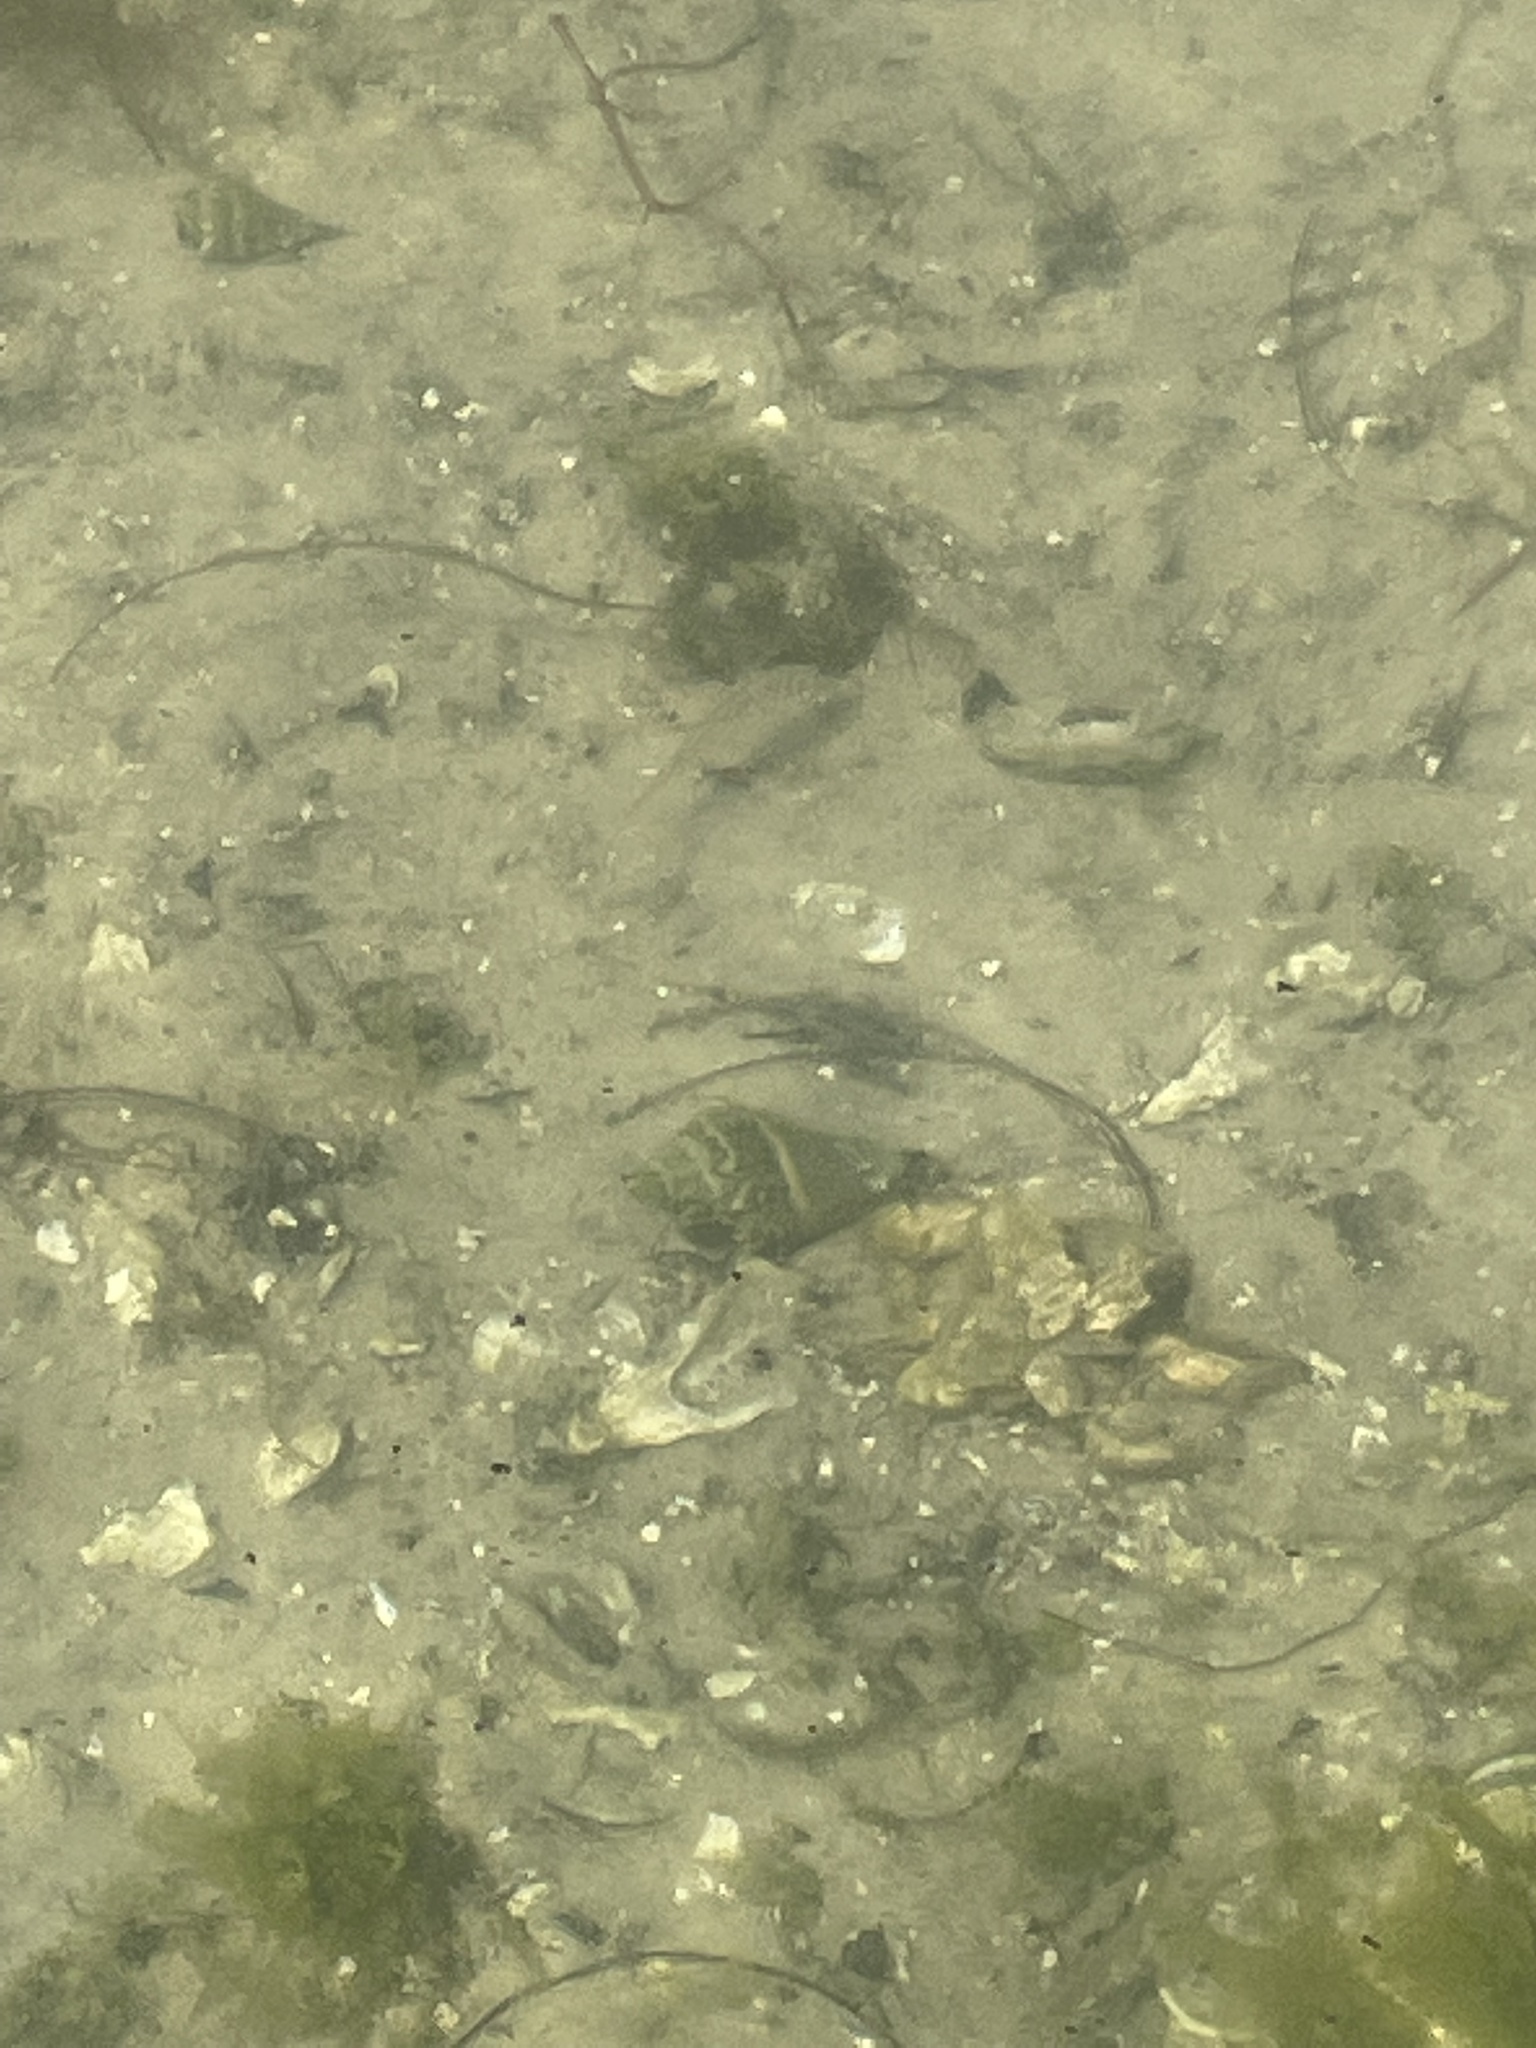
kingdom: Animalia
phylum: Mollusca
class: Gastropoda
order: Neogastropoda
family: Melongenidae
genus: Melongena
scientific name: Melongena corona
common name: American crown conch
